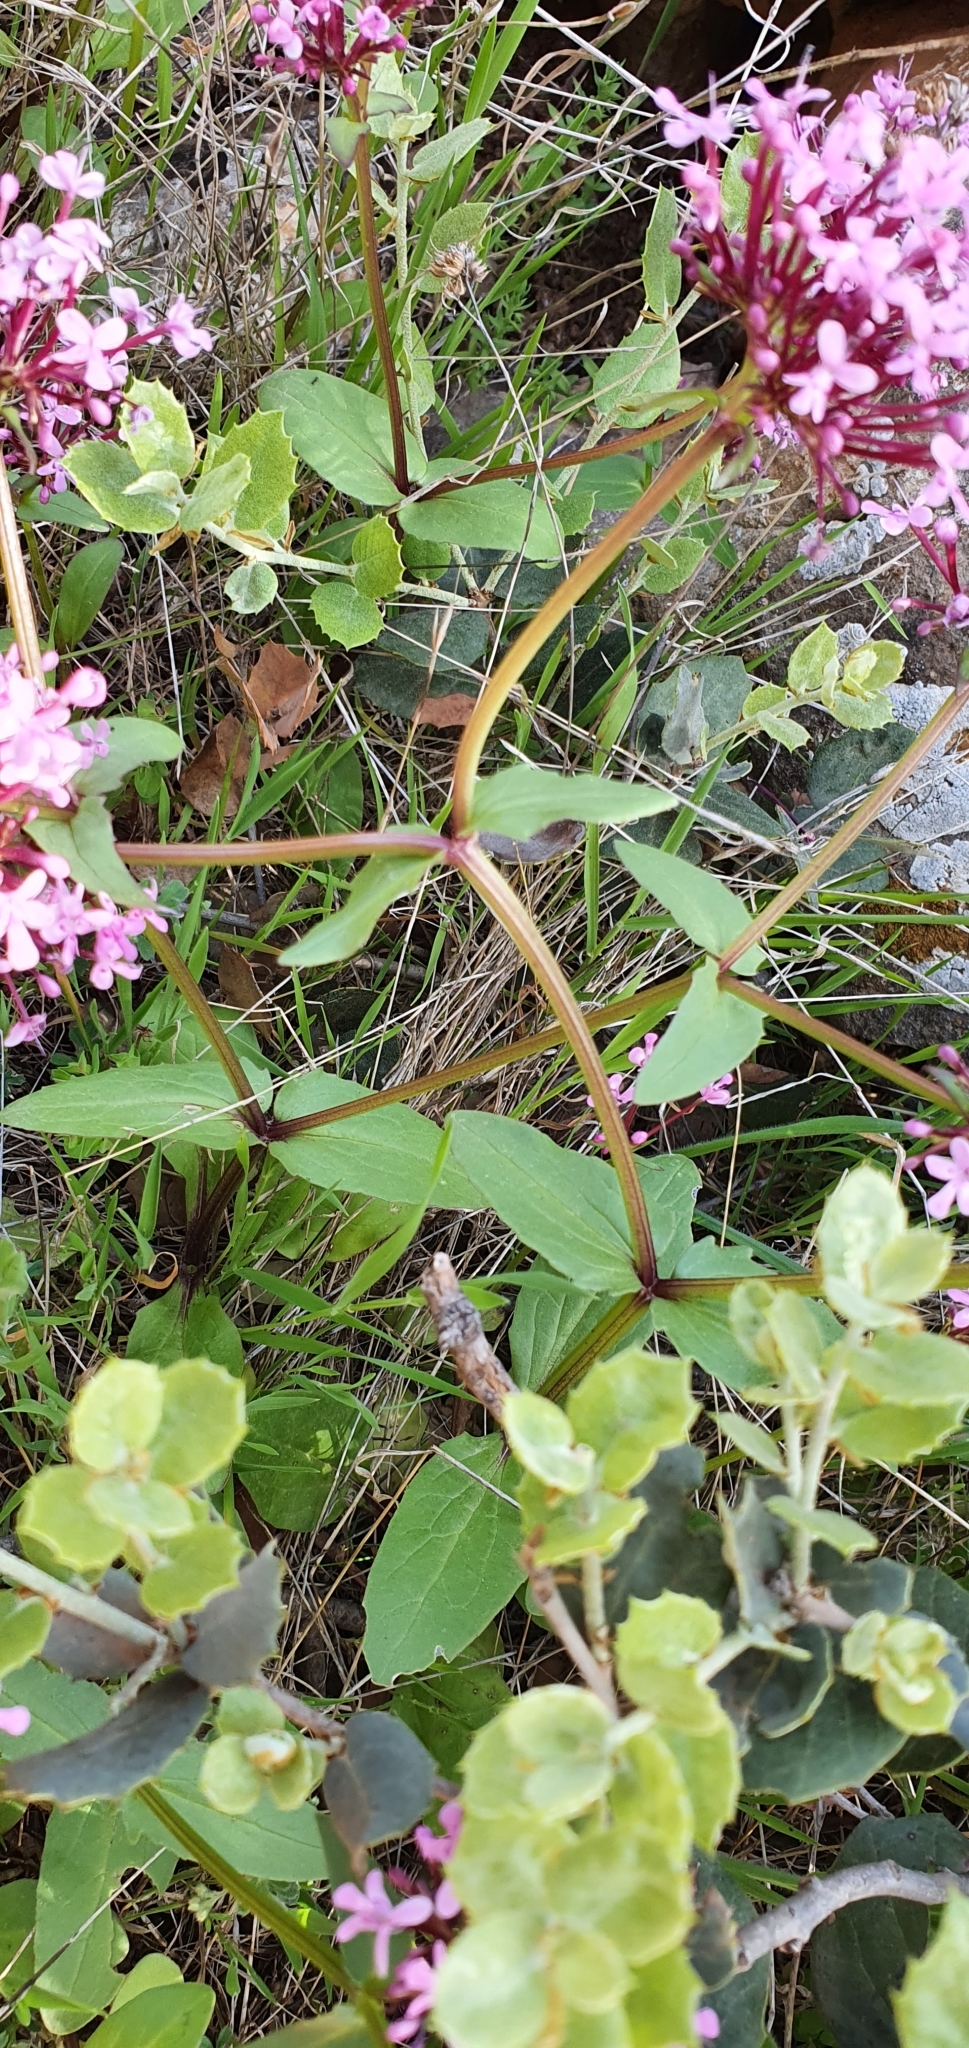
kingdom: Plantae
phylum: Tracheophyta
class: Magnoliopsida
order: Dipsacales
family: Caprifoliaceae
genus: Fedia
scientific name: Fedia graciliflora
